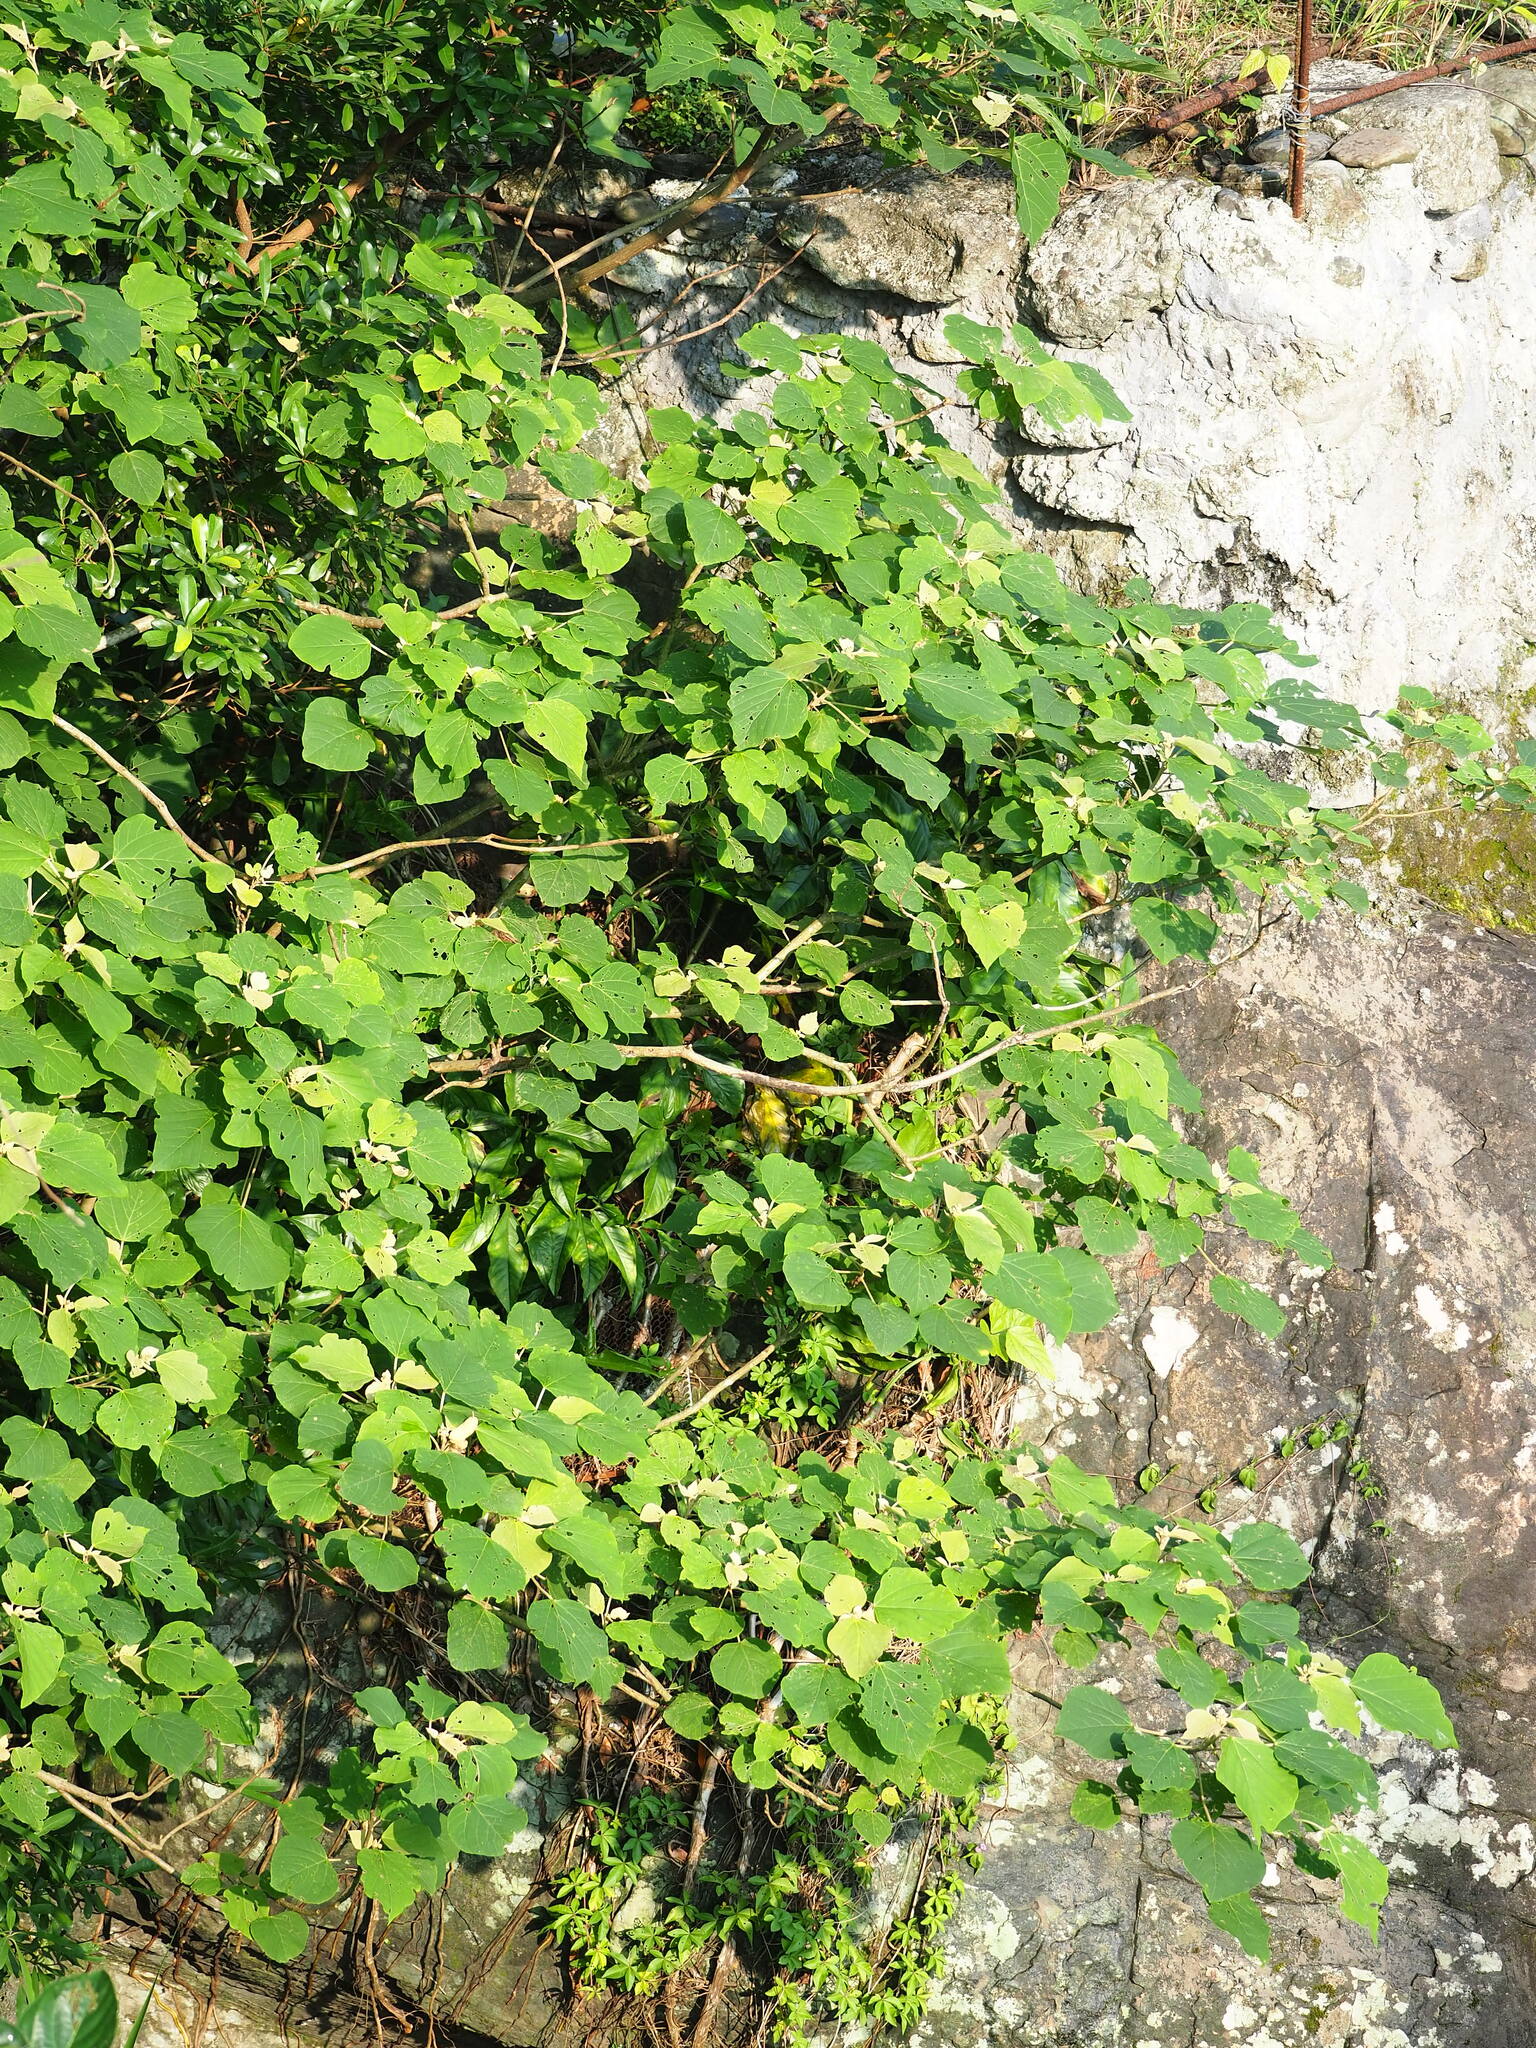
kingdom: Plantae
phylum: Tracheophyta
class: Magnoliopsida
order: Malpighiales
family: Euphorbiaceae
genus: Mallotus
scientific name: Mallotus japonicus
